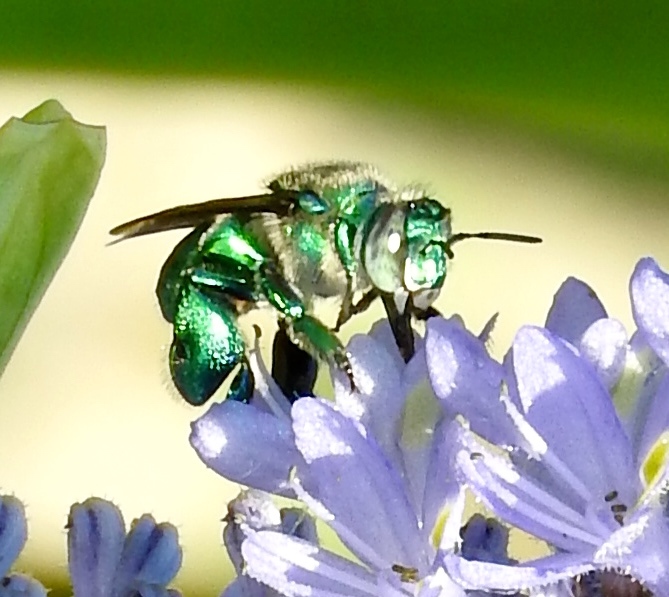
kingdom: Animalia
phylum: Arthropoda
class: Insecta
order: Hymenoptera
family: Apidae
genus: Euglossa
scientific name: Euglossa
